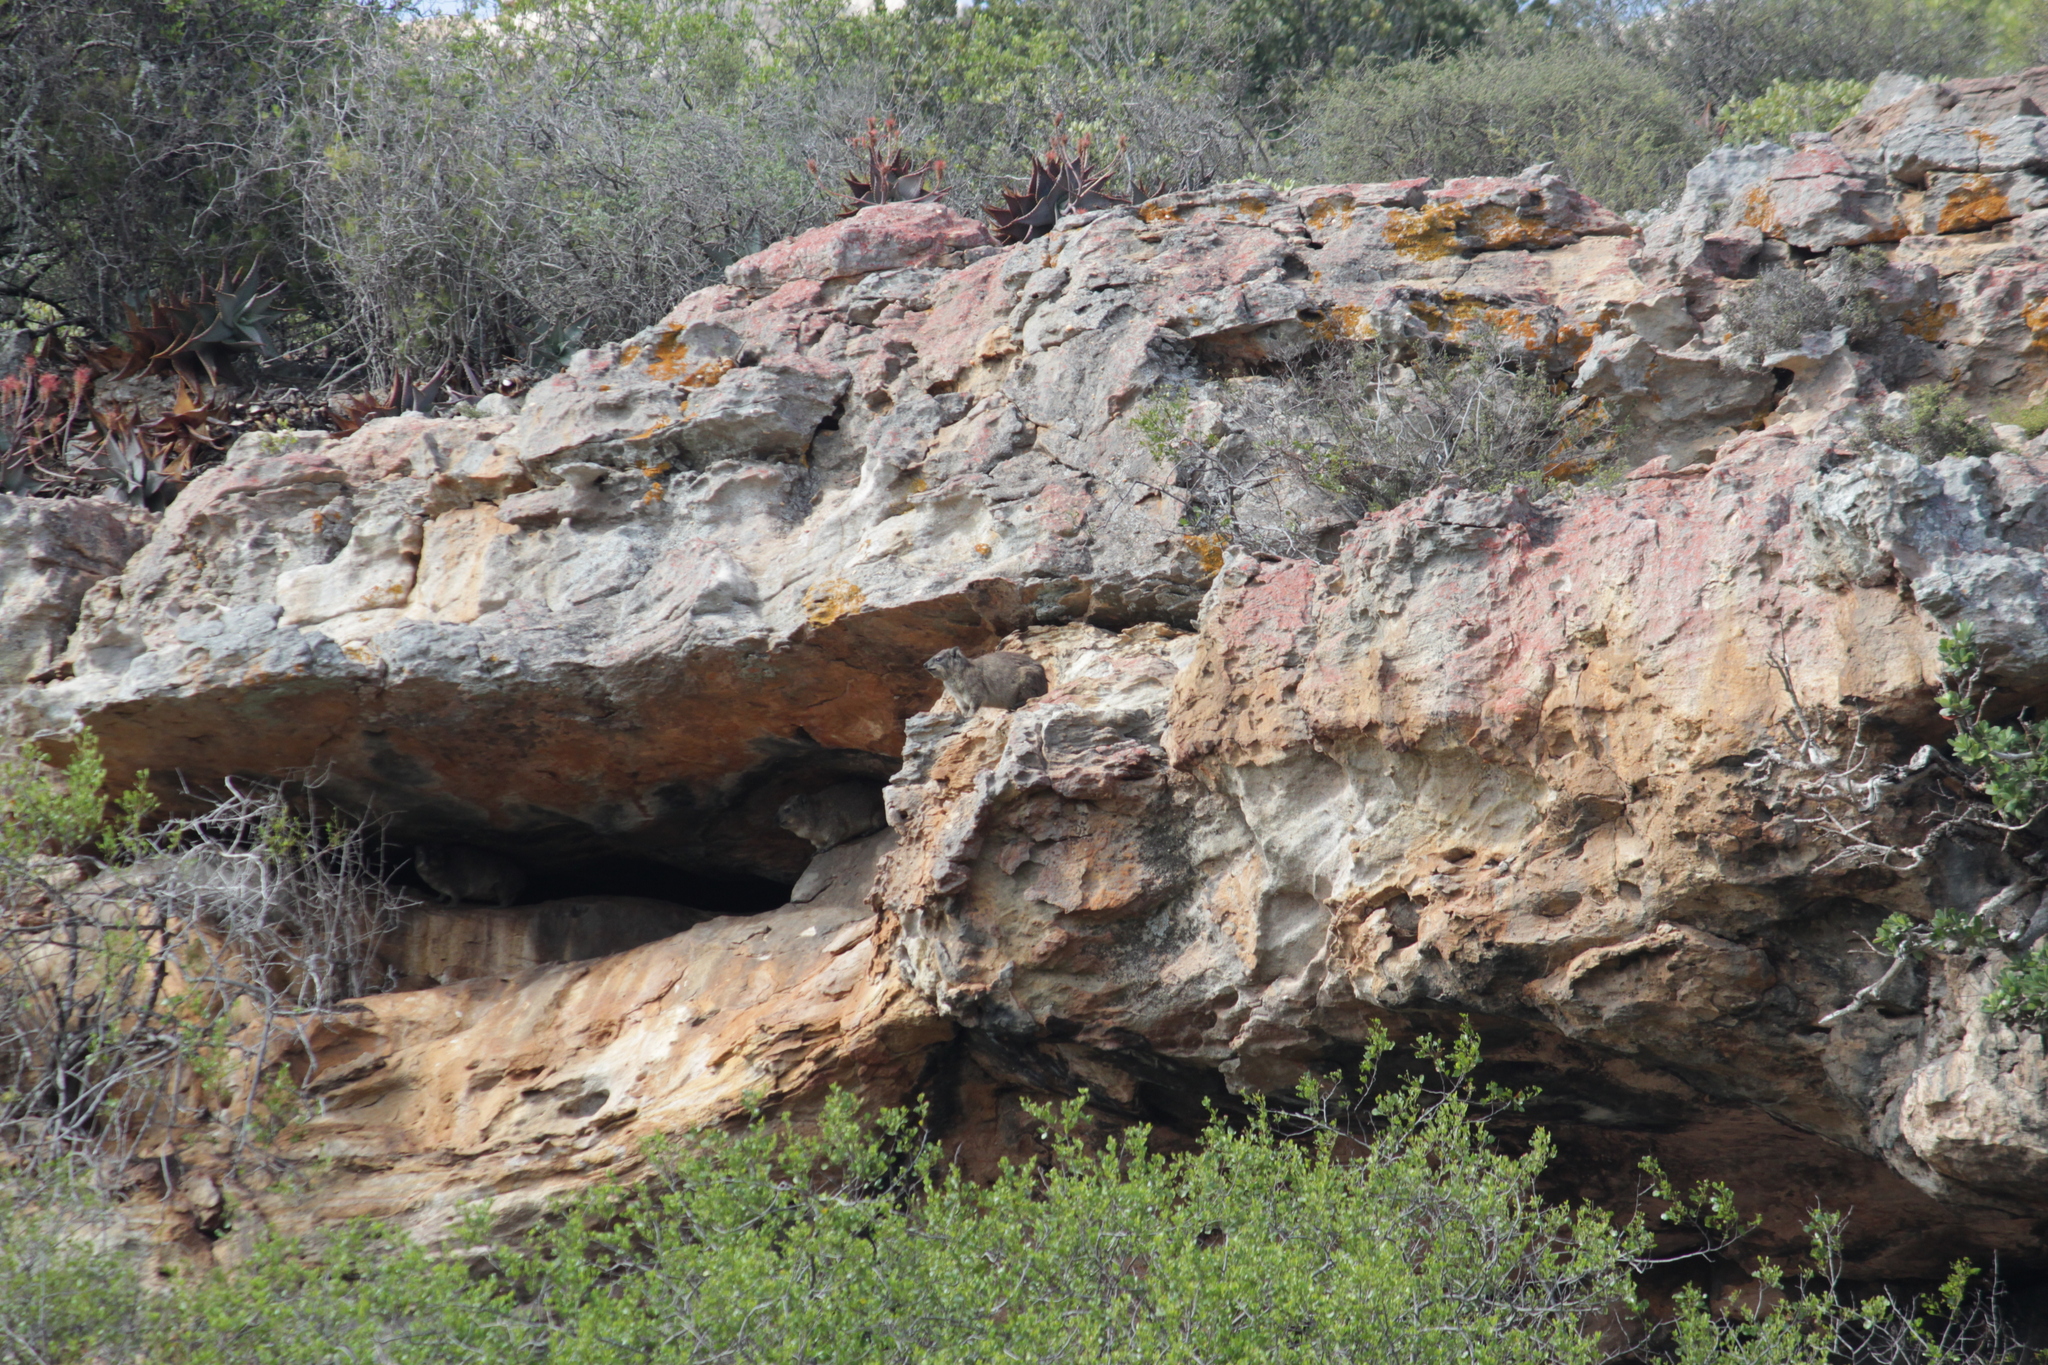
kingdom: Animalia
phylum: Chordata
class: Mammalia
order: Hyracoidea
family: Procaviidae
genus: Procavia
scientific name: Procavia capensis
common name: Rock hyrax
